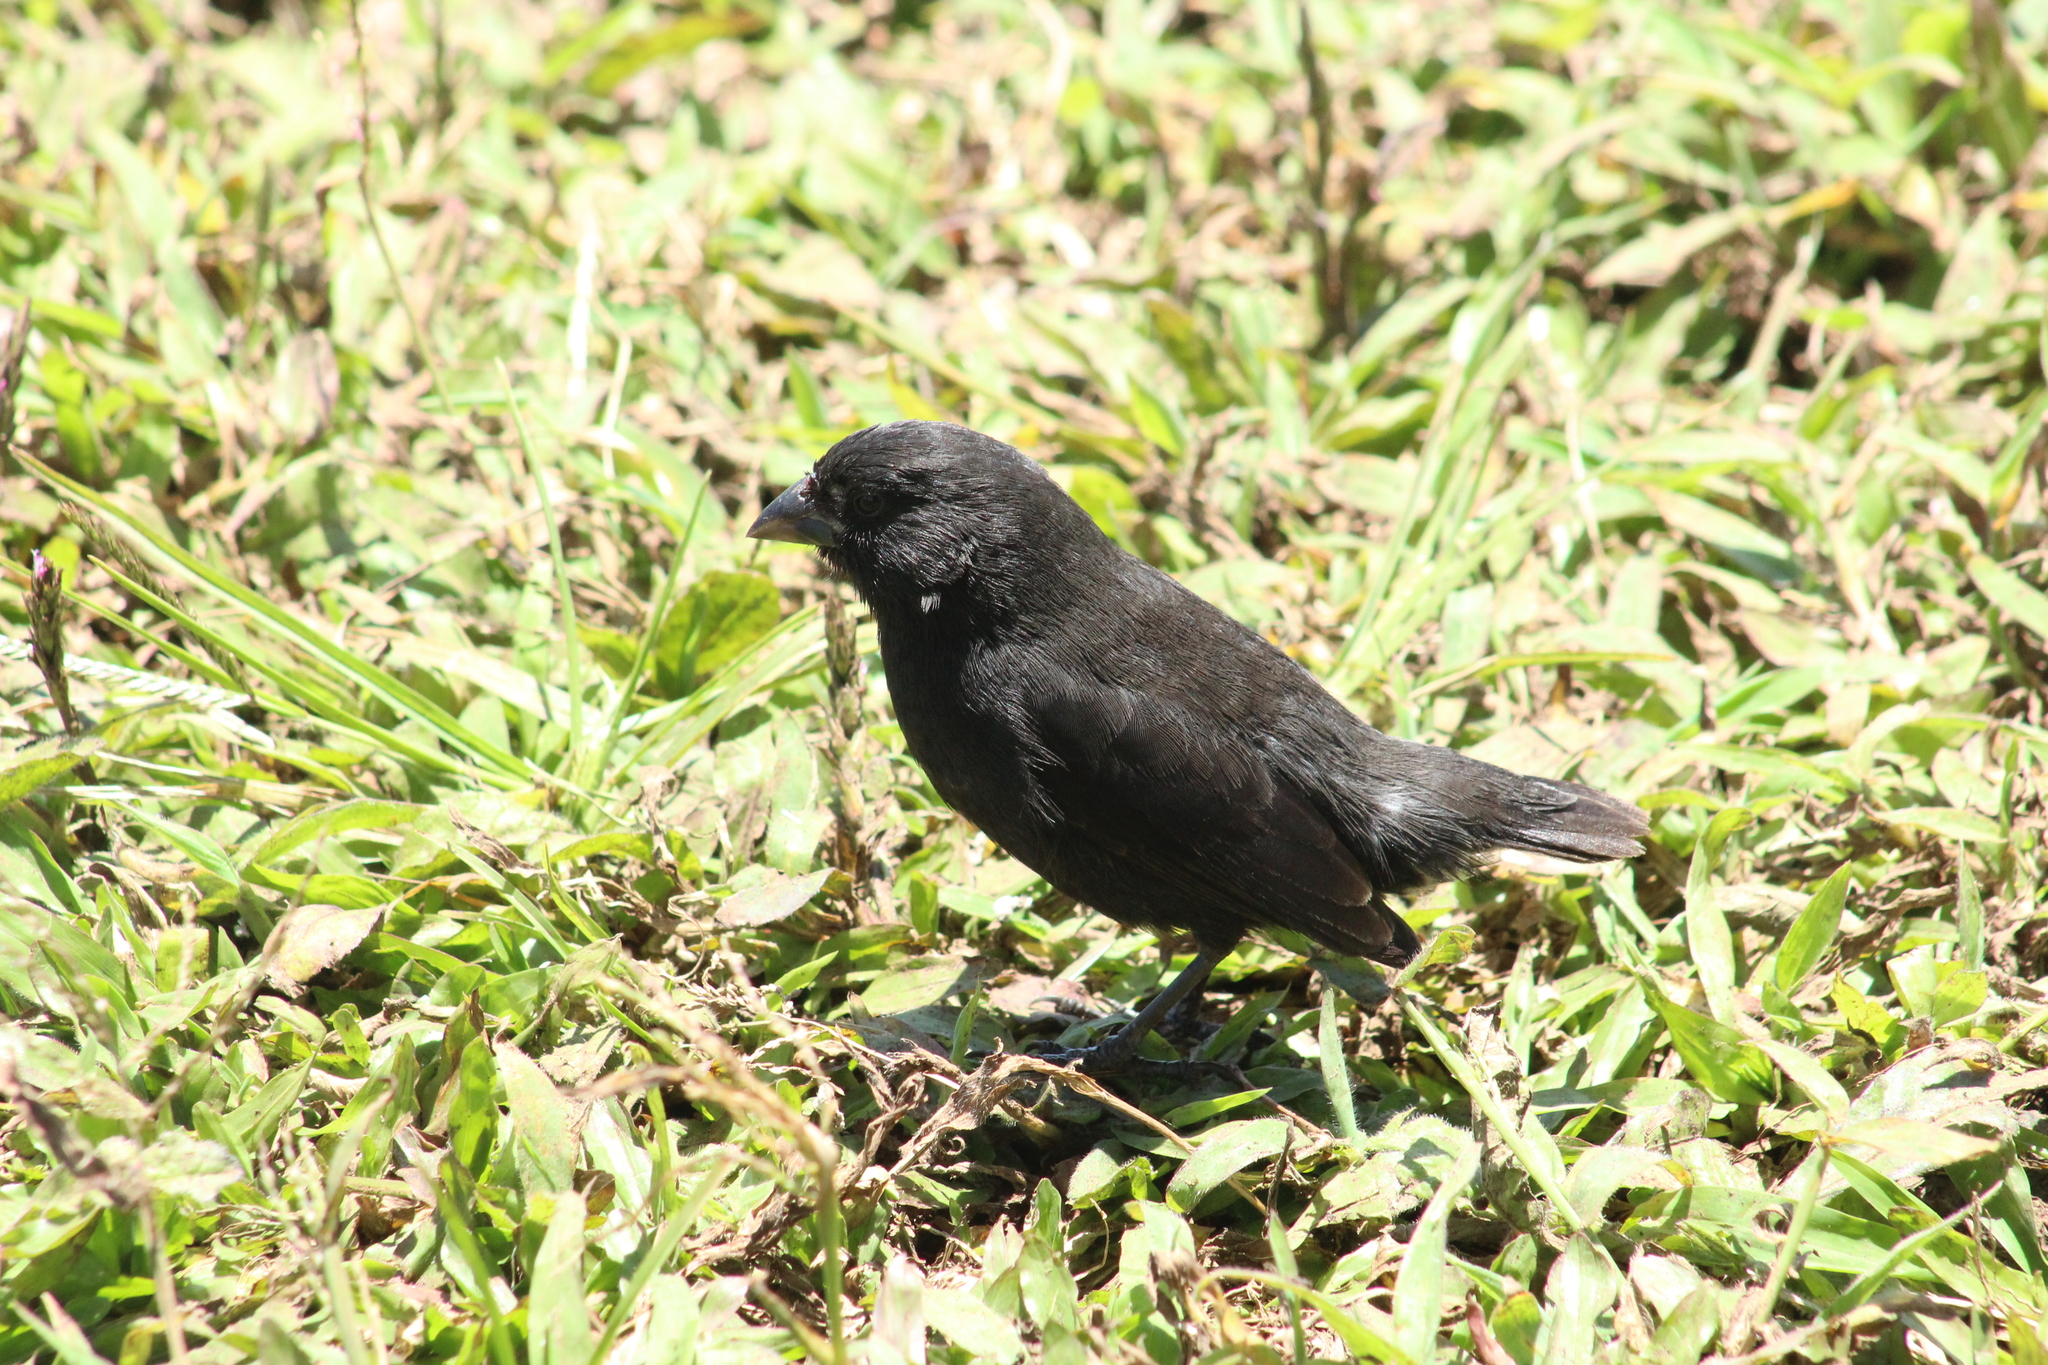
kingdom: Animalia
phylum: Chordata
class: Aves
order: Passeriformes
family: Thraupidae
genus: Geospiza
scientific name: Geospiza fortis
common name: Medium ground finch
